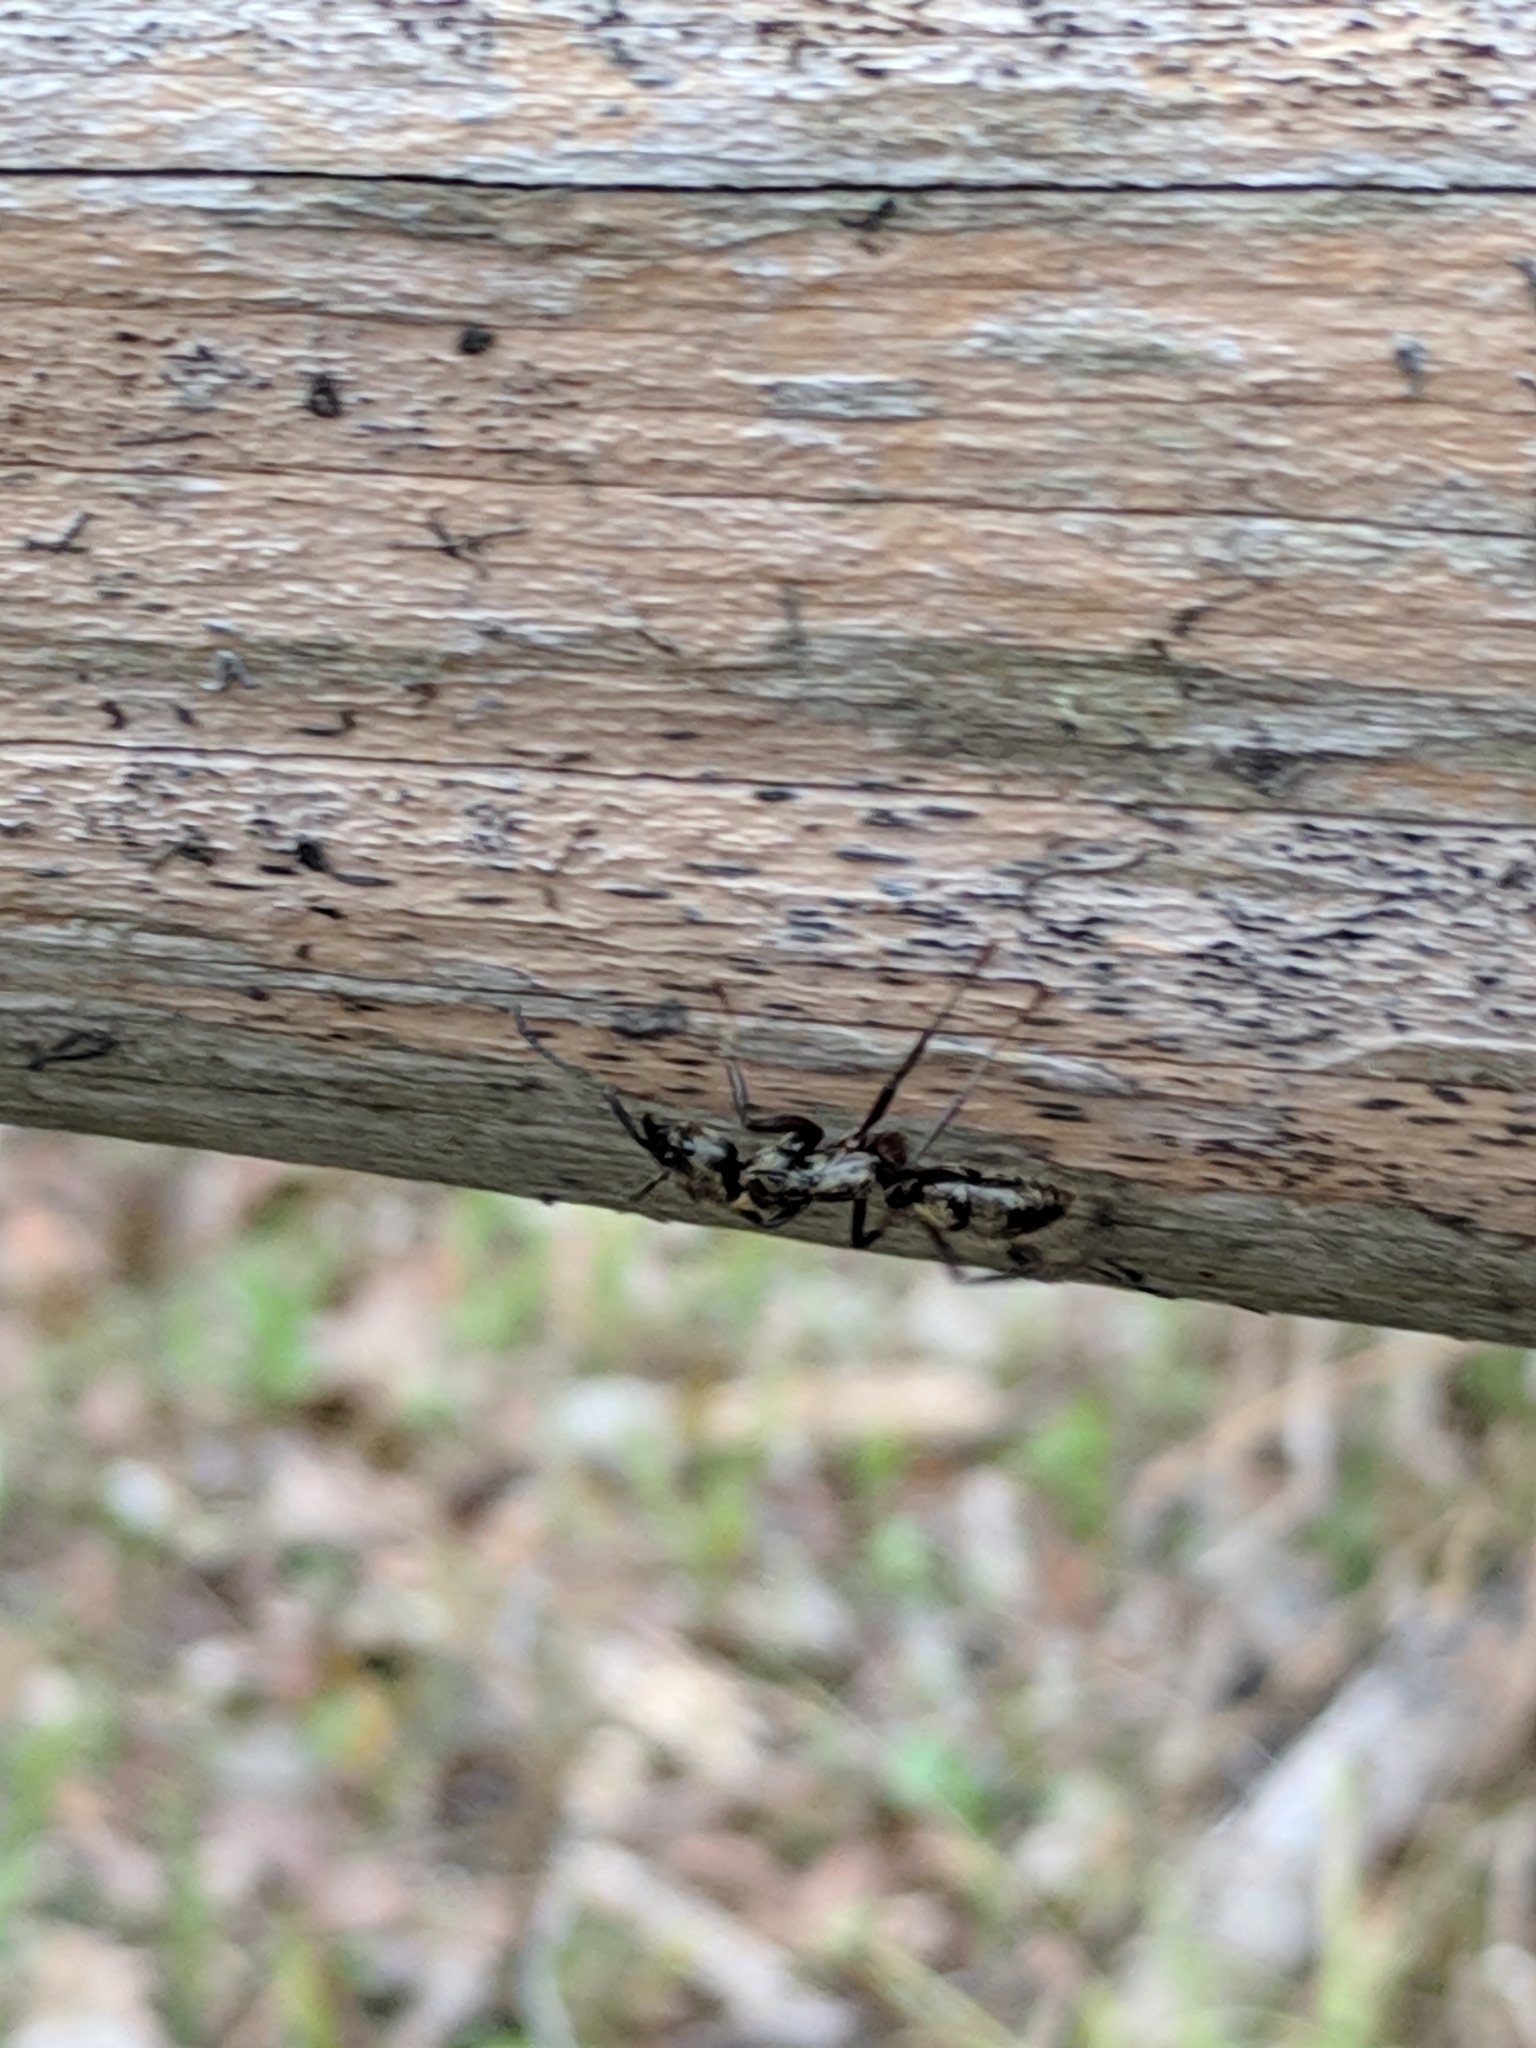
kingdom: Animalia
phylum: Arthropoda
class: Insecta
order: Hymenoptera
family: Formicidae
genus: Pachycondyla
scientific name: Pachycondyla villosa
